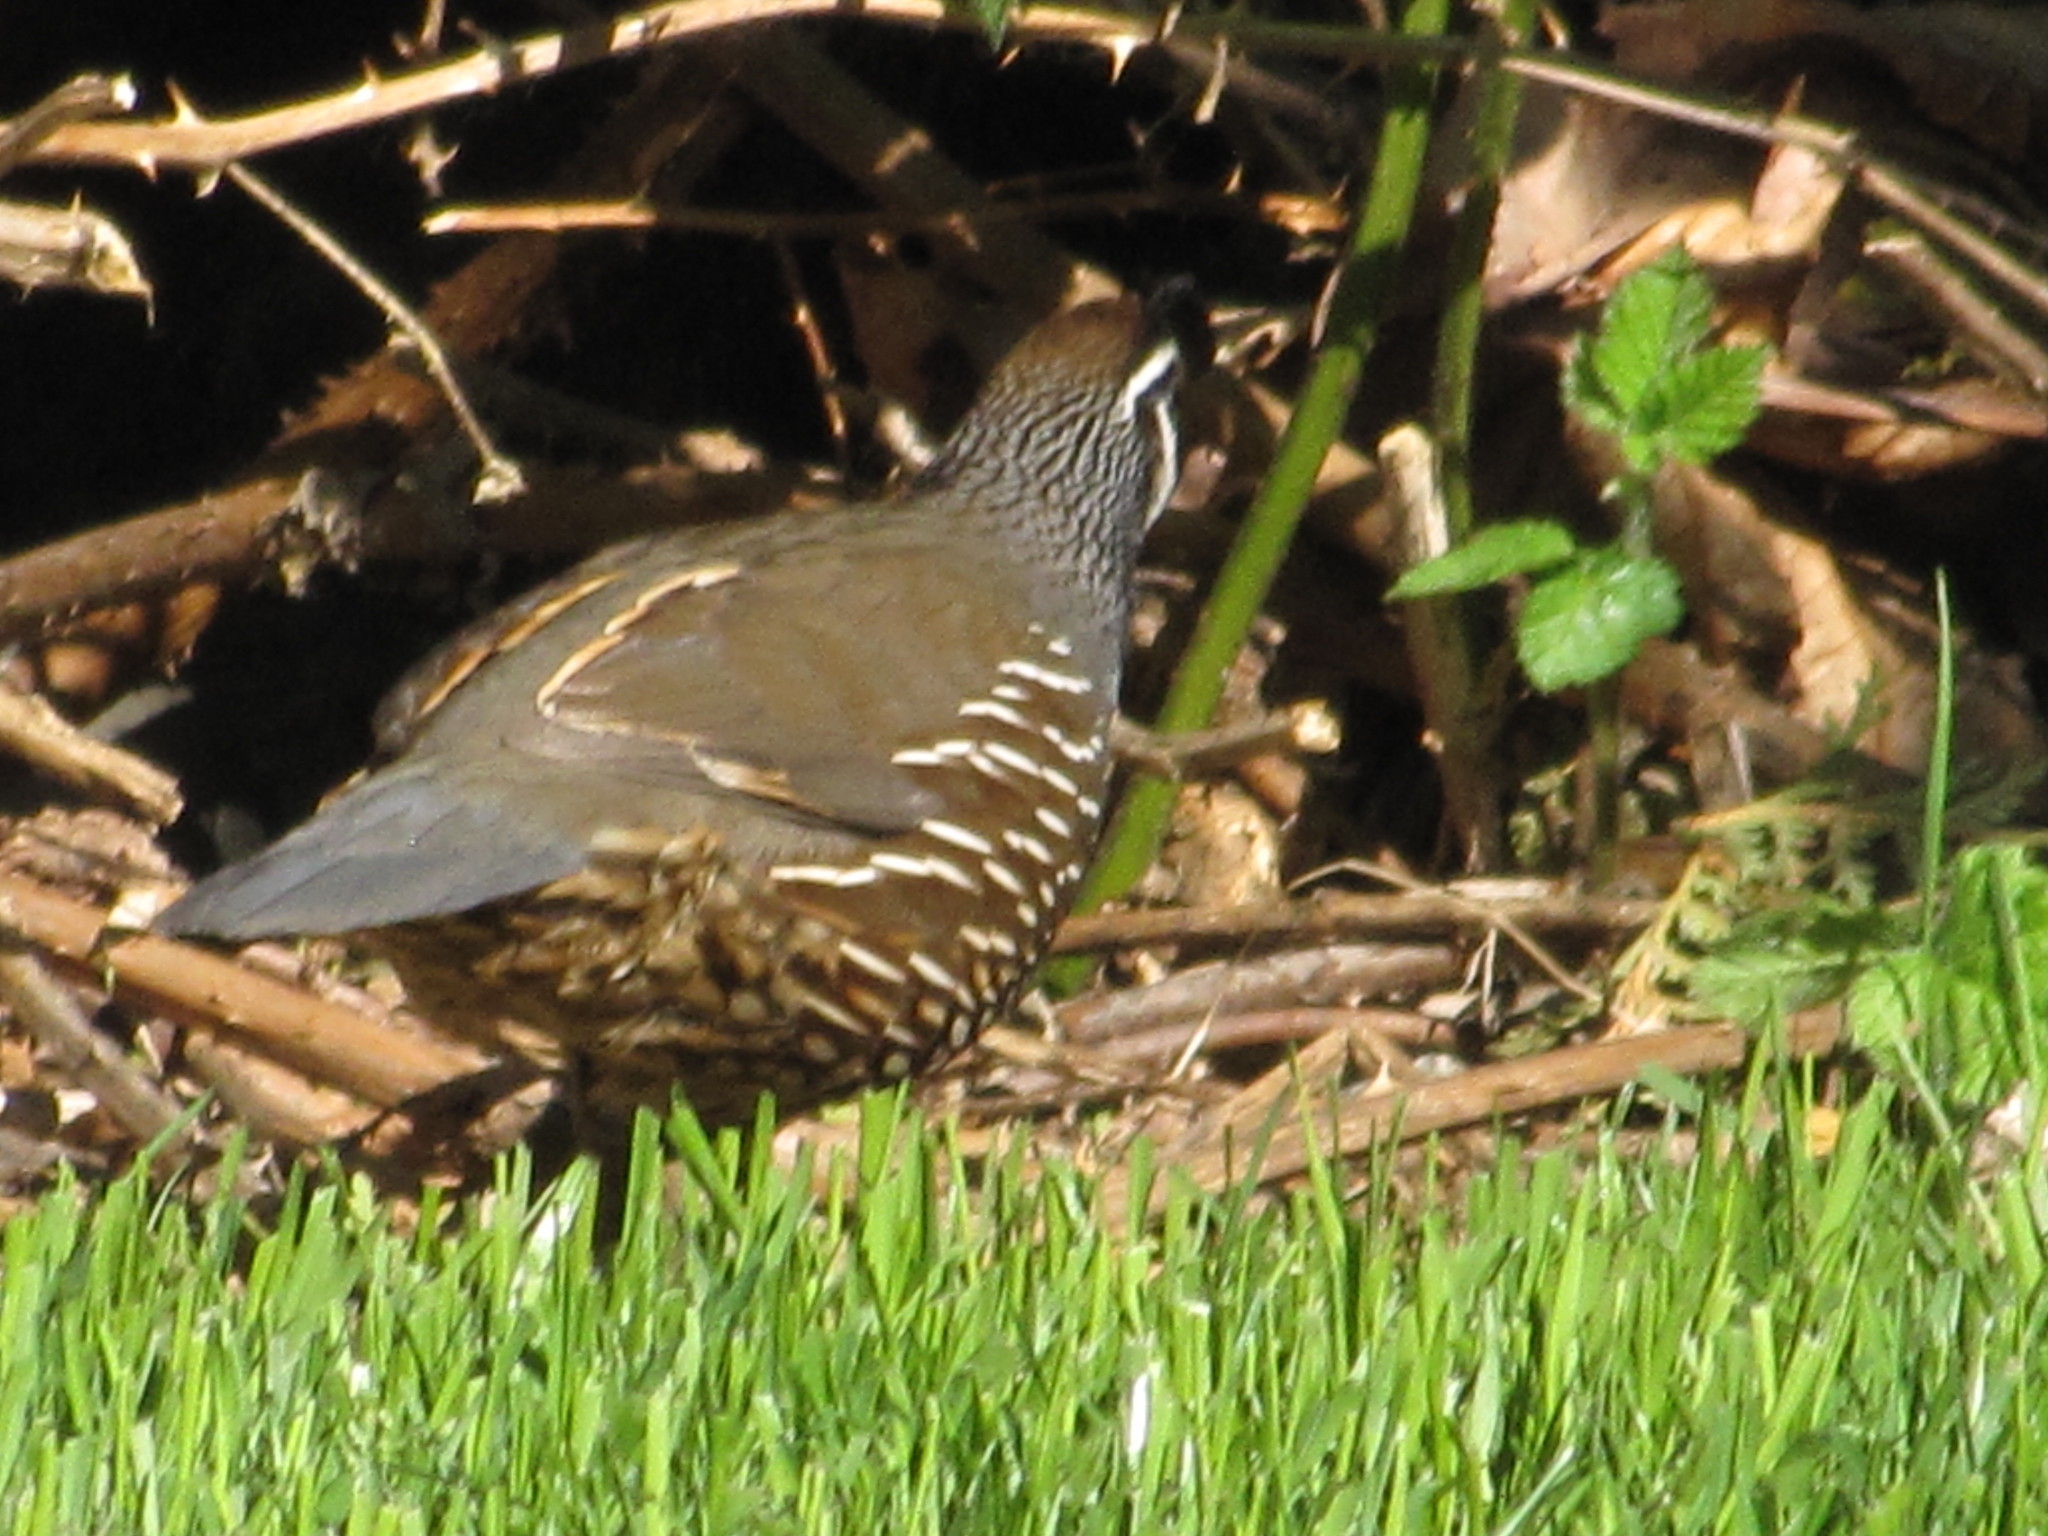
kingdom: Animalia
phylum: Chordata
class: Aves
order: Galliformes
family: Odontophoridae
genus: Callipepla
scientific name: Callipepla californica
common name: California quail
